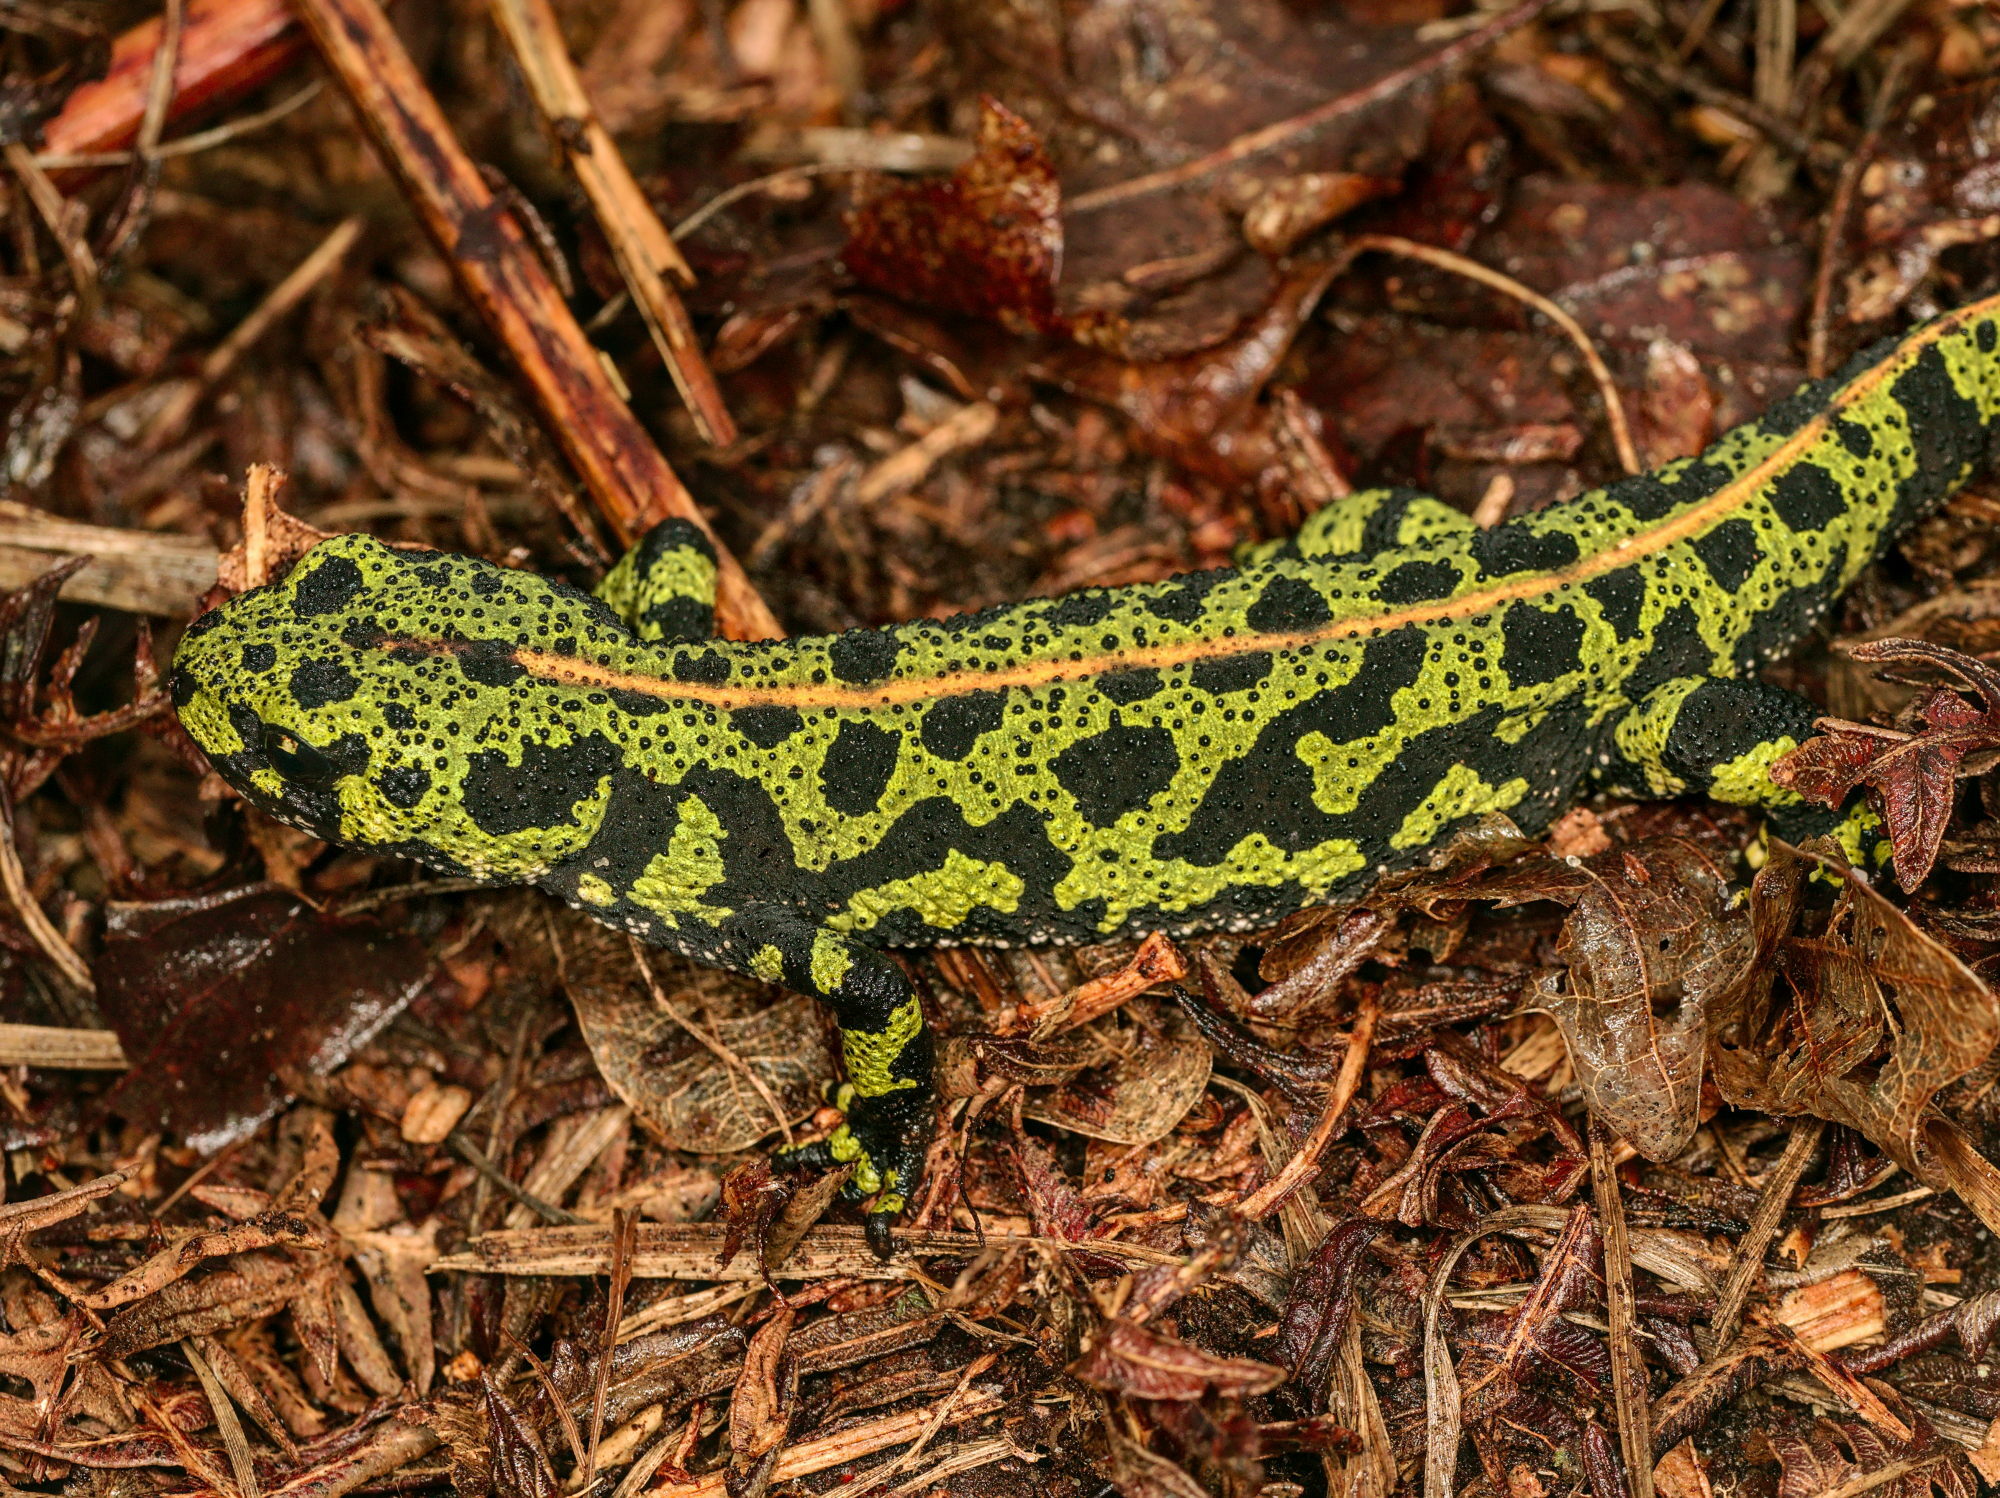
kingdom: Animalia
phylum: Chordata
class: Amphibia
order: Caudata
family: Salamandridae
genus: Triturus
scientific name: Triturus marmoratus
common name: Marbled newt
